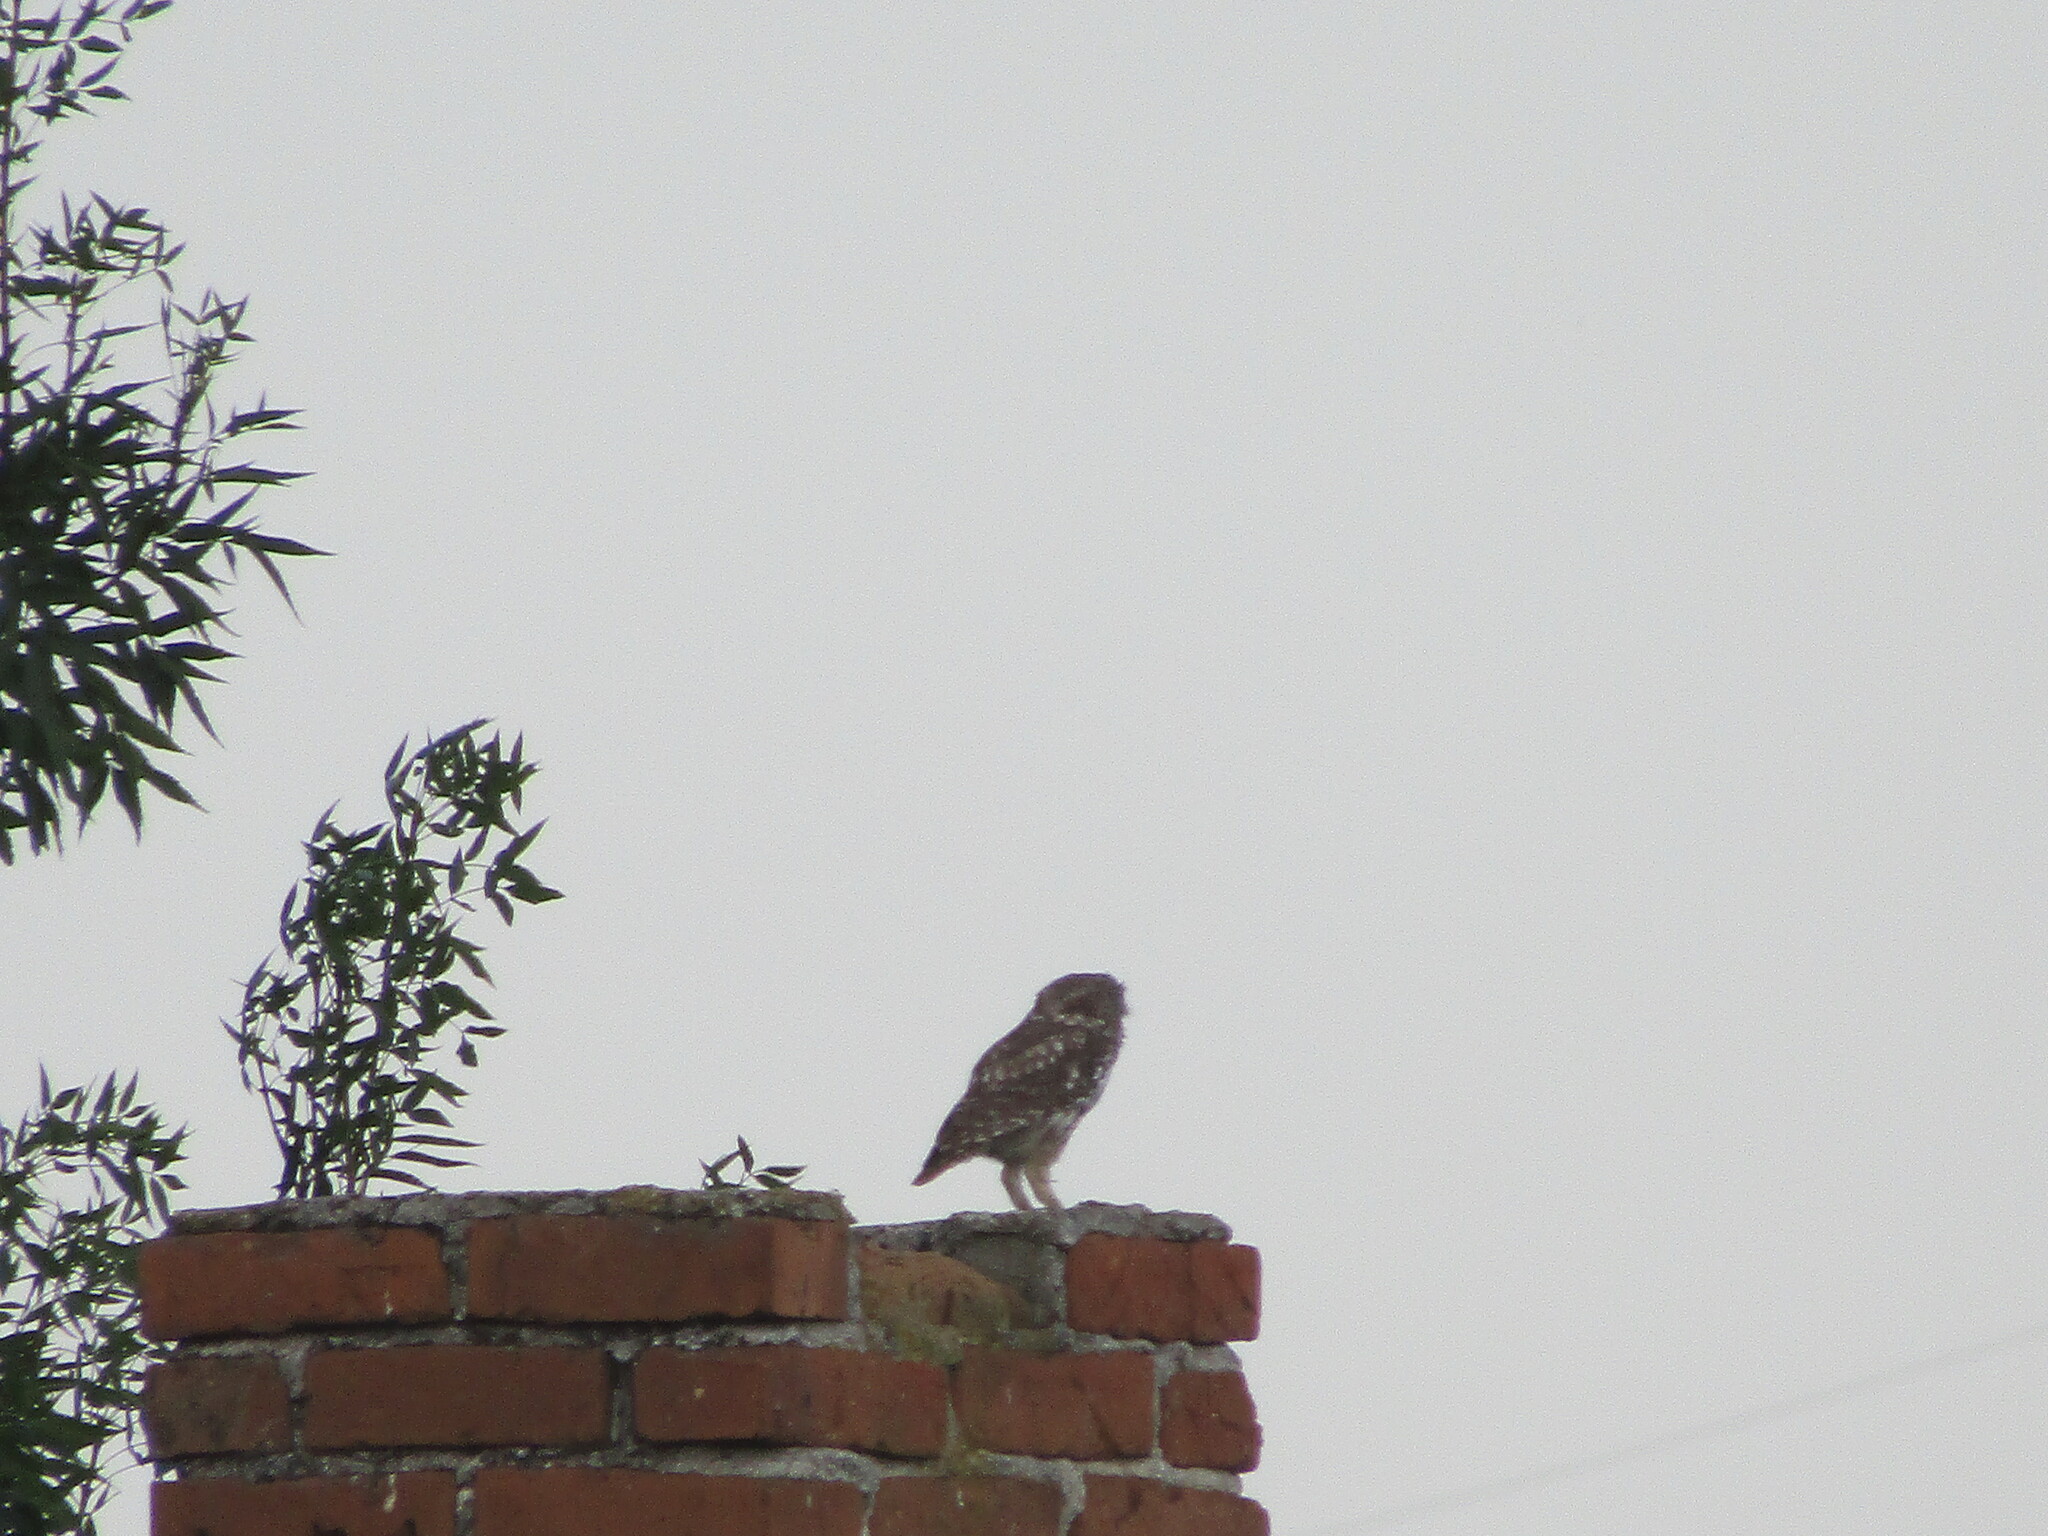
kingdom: Animalia
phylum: Chordata
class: Aves
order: Strigiformes
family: Strigidae
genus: Athene
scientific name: Athene noctua
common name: Little owl
